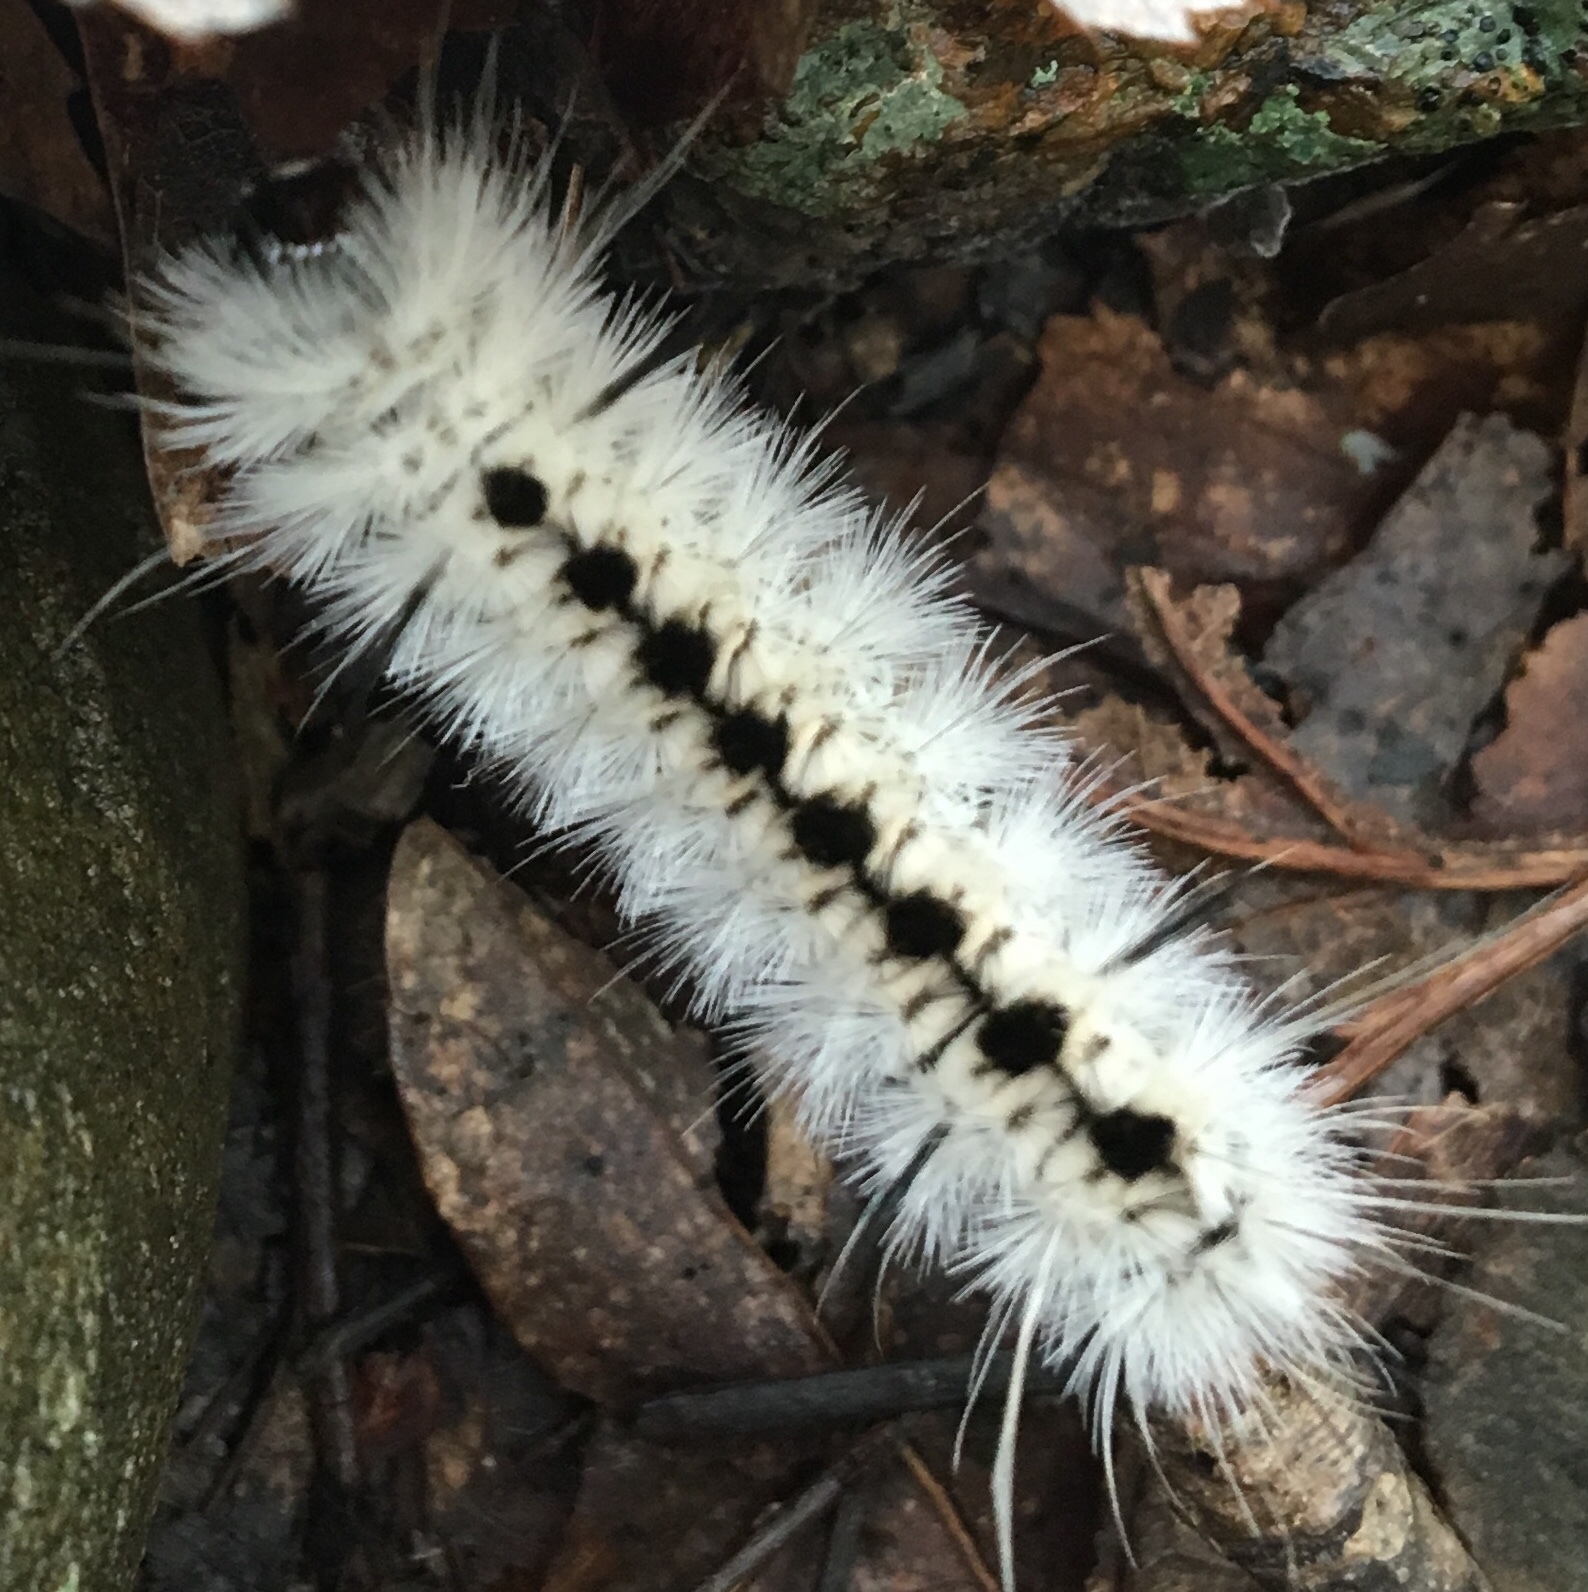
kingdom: Animalia
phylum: Arthropoda
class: Insecta
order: Lepidoptera
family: Erebidae
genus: Lophocampa
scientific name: Lophocampa caryae
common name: Hickory tussock moth
